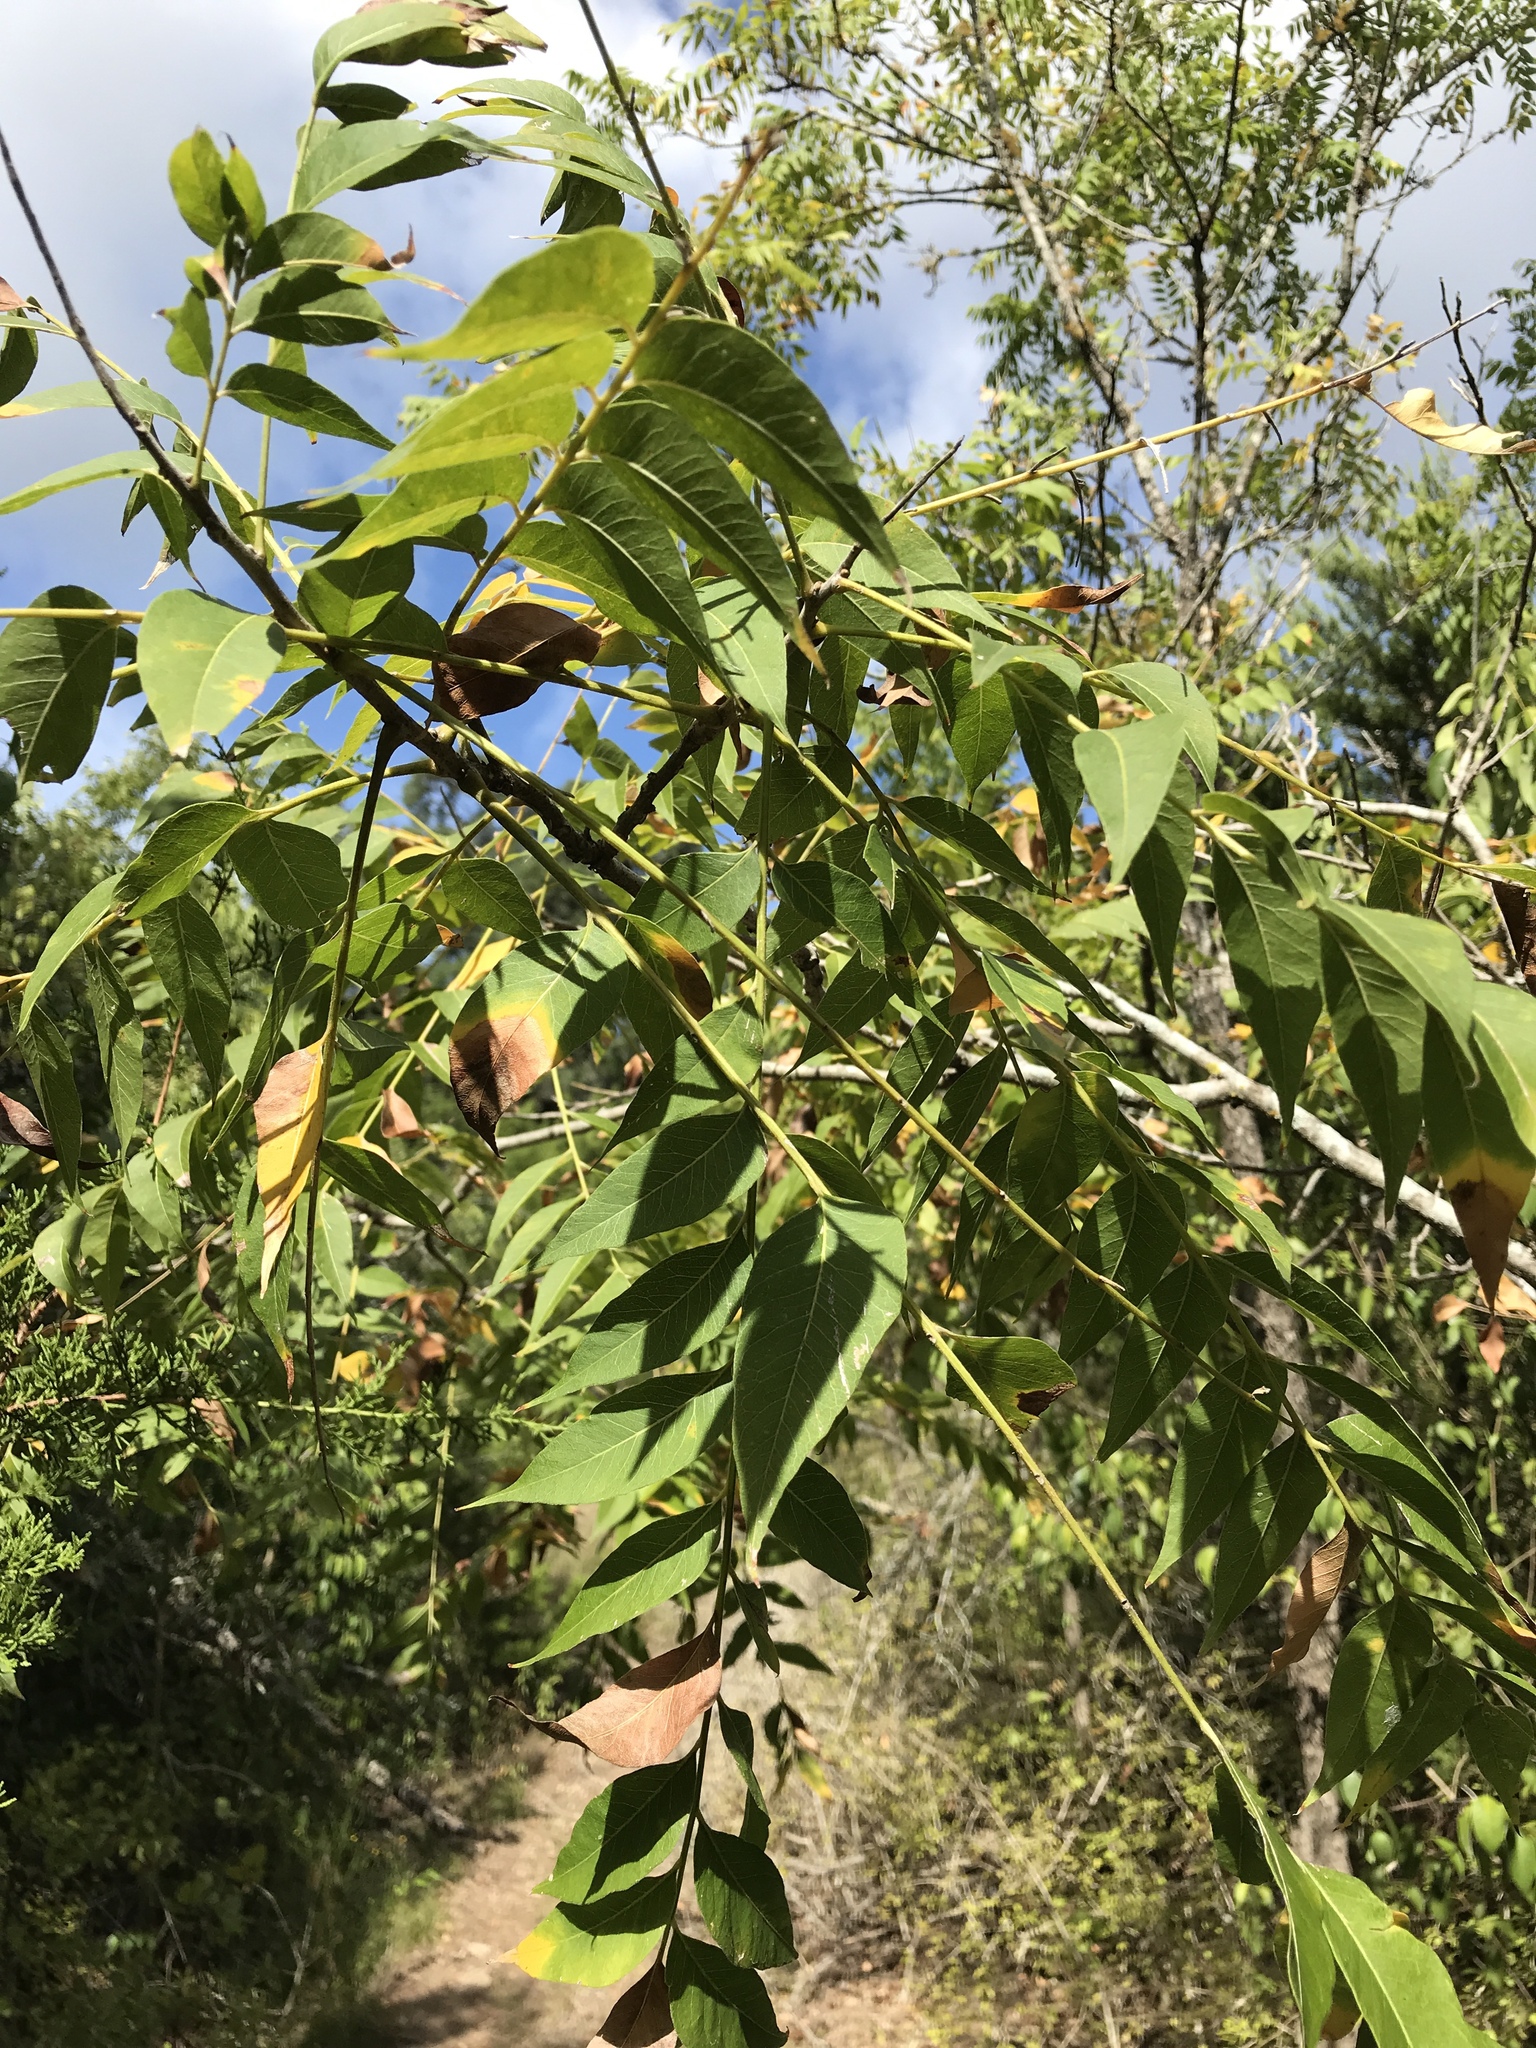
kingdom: Plantae
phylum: Tracheophyta
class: Magnoliopsida
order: Sapindales
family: Sapindaceae
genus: Sapindus
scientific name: Sapindus drummondii
